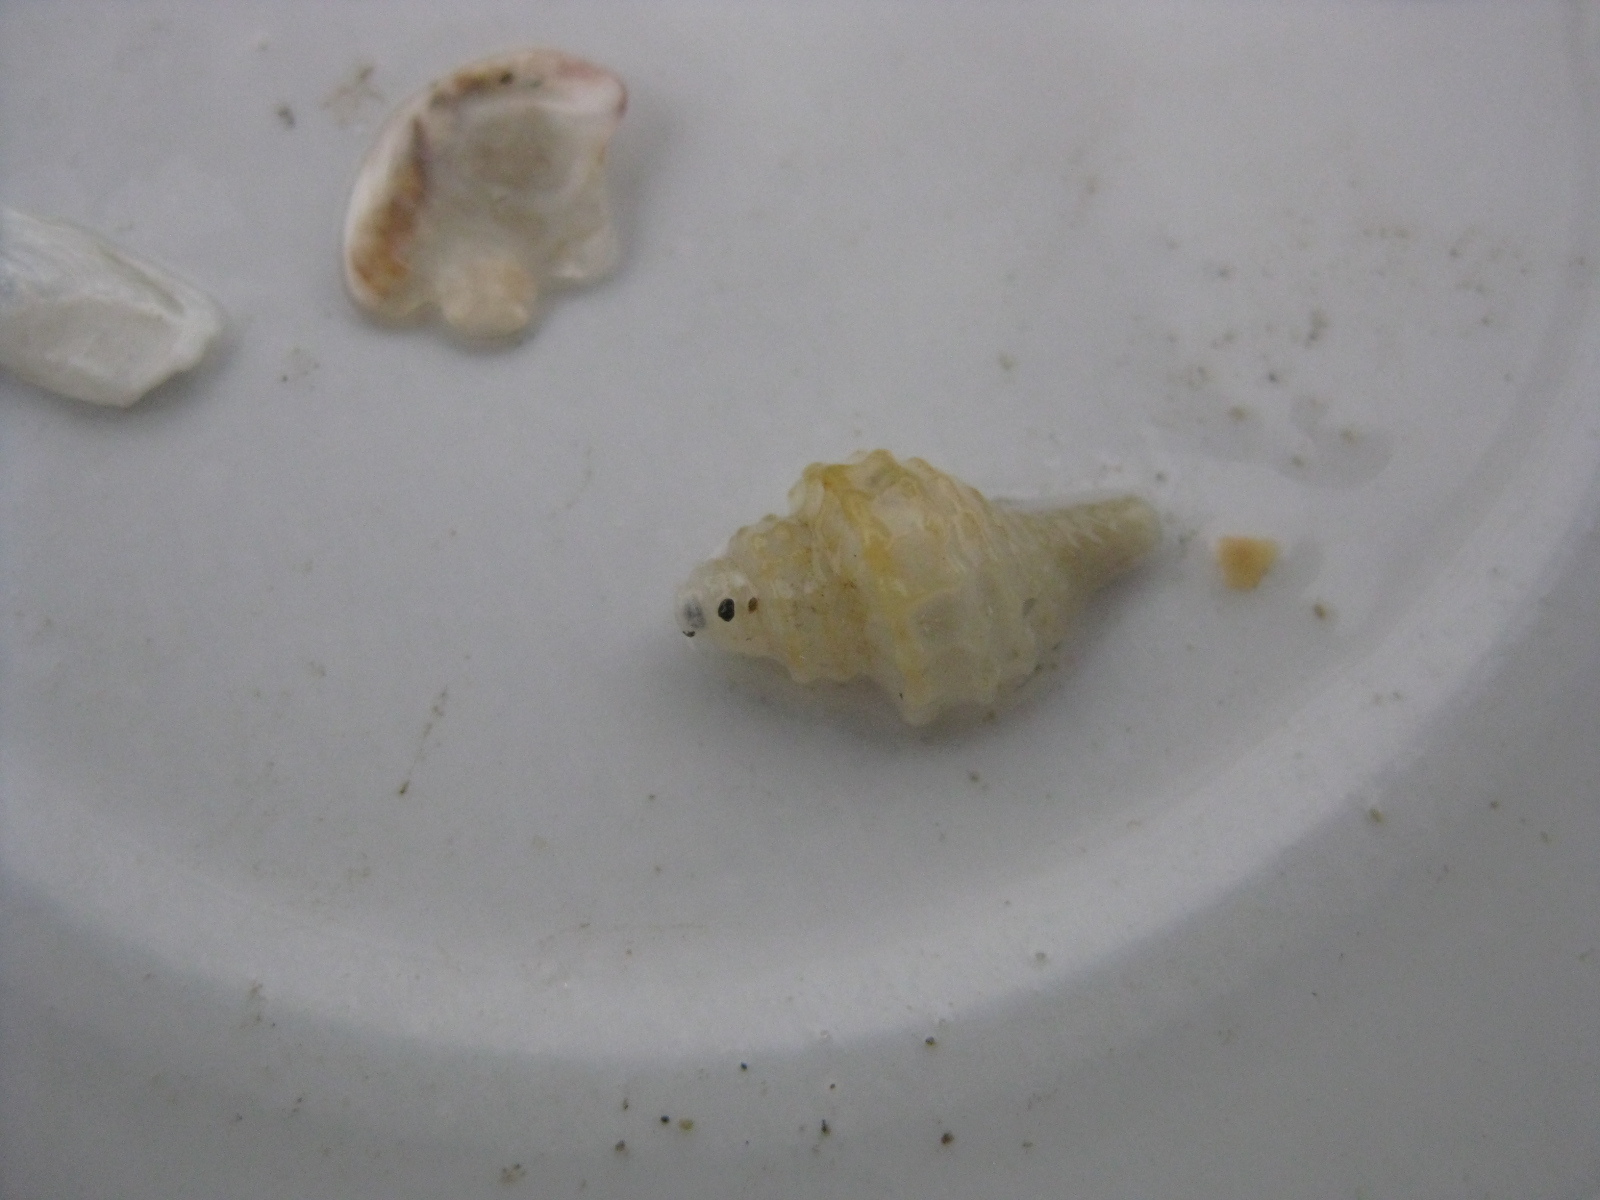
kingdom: Animalia
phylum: Mollusca
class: Gastropoda
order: Neogastropoda
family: Muricidae
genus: Zeatrophon
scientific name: Zeatrophon ambiguus
